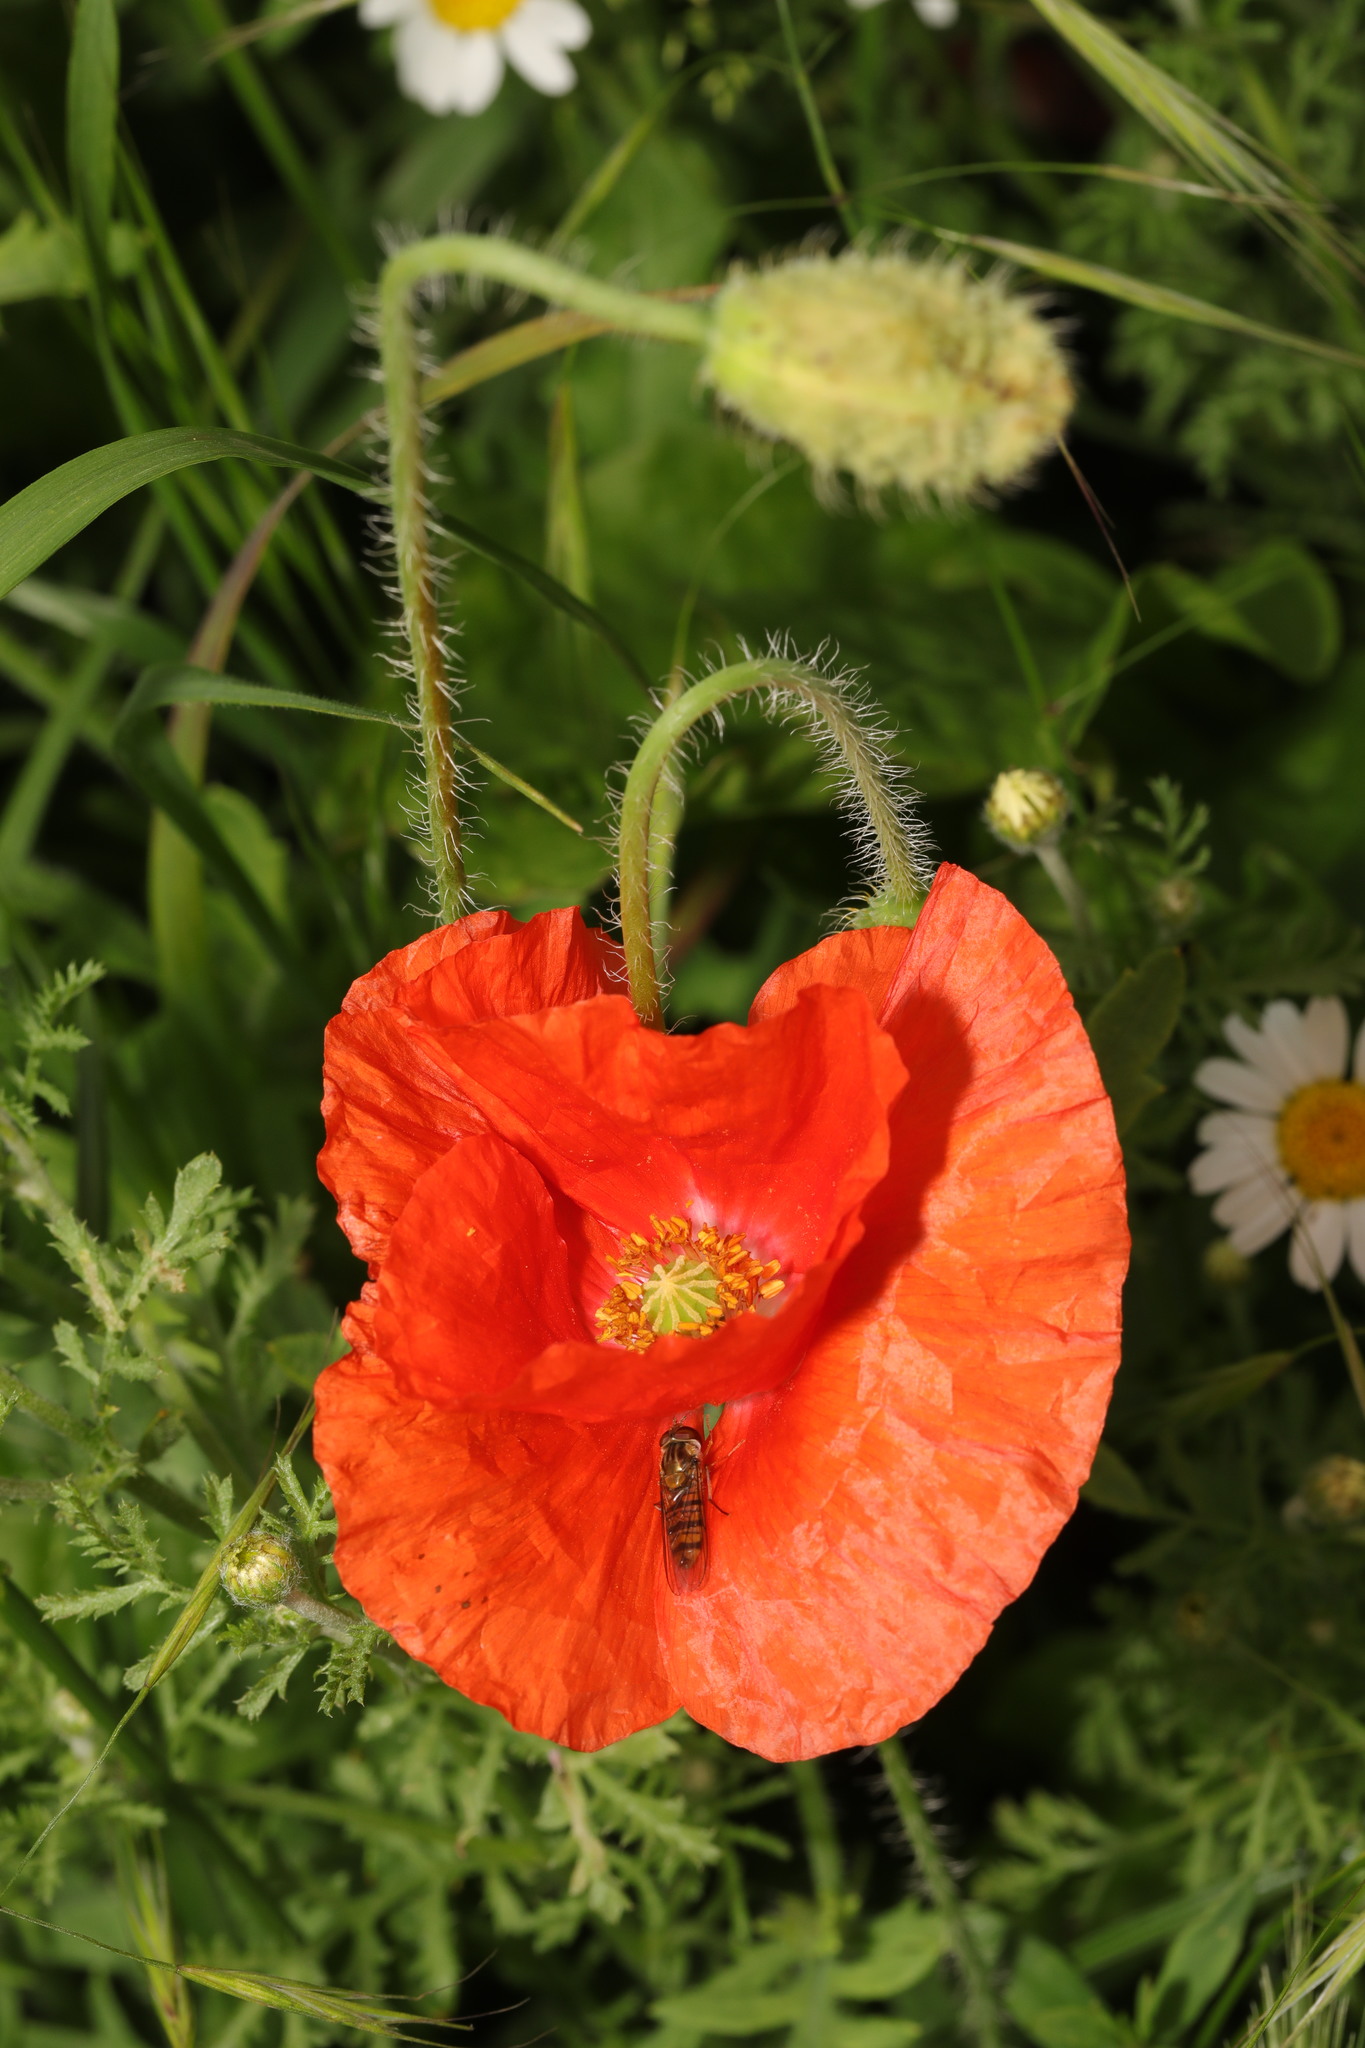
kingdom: Plantae
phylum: Tracheophyta
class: Magnoliopsida
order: Ranunculales
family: Papaveraceae
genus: Papaver
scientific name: Papaver rhoeas
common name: Corn poppy
